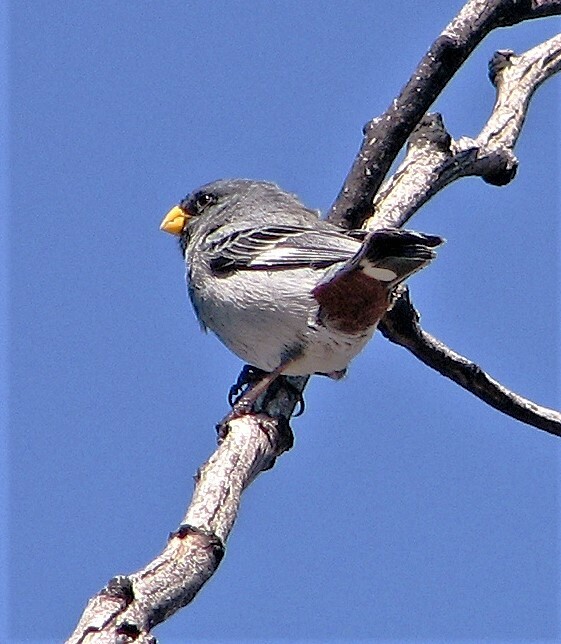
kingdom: Animalia
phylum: Chordata
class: Aves
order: Passeriformes
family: Thraupidae
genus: Catamenia
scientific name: Catamenia analis
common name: Band-tailed seedeater
